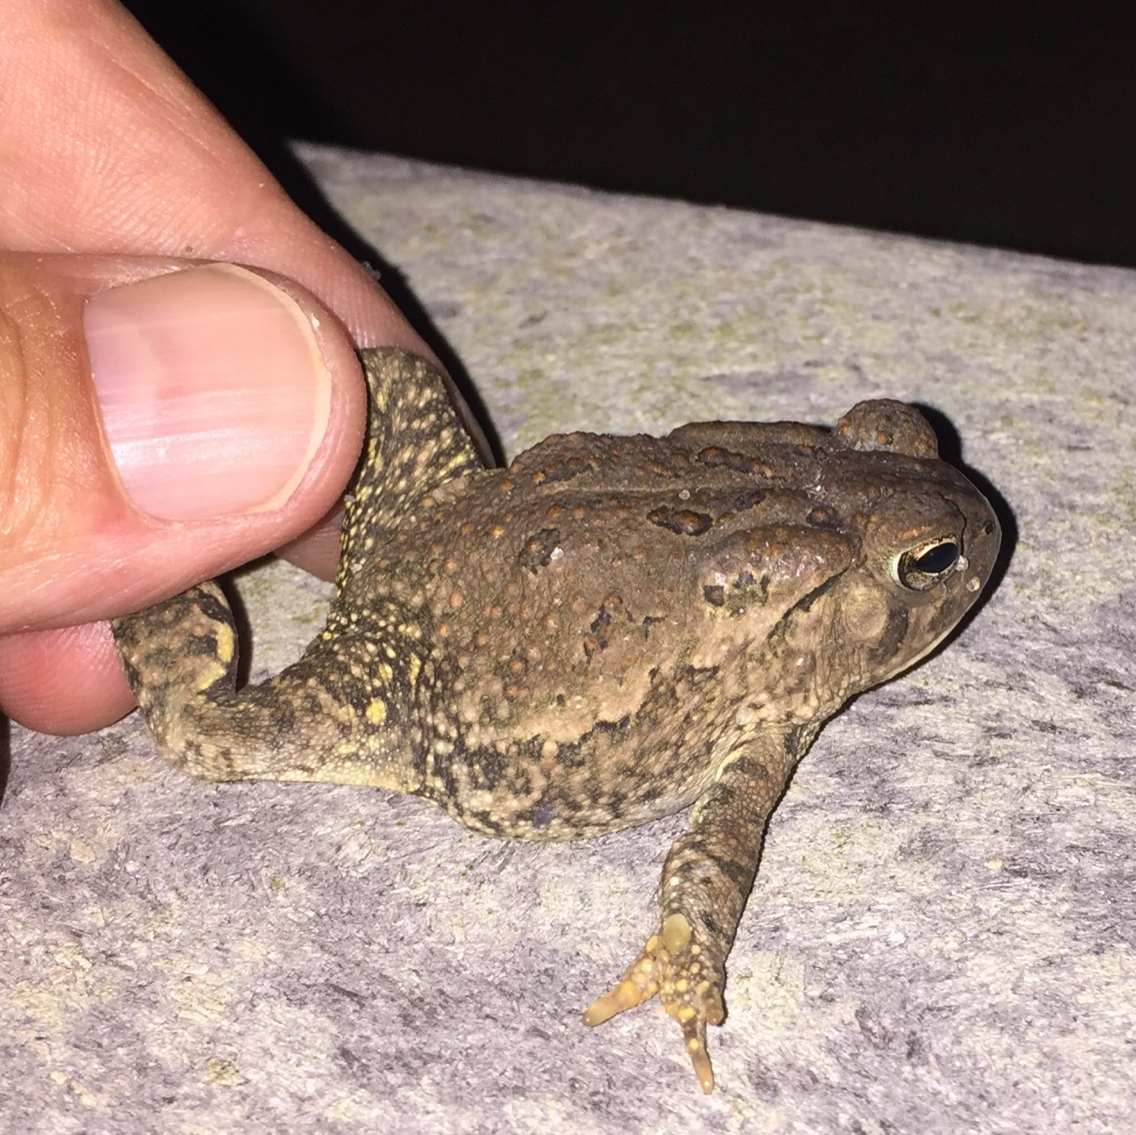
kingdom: Animalia
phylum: Chordata
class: Amphibia
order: Anura
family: Bufonidae
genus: Anaxyrus
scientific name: Anaxyrus fowleri
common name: Fowler's toad
